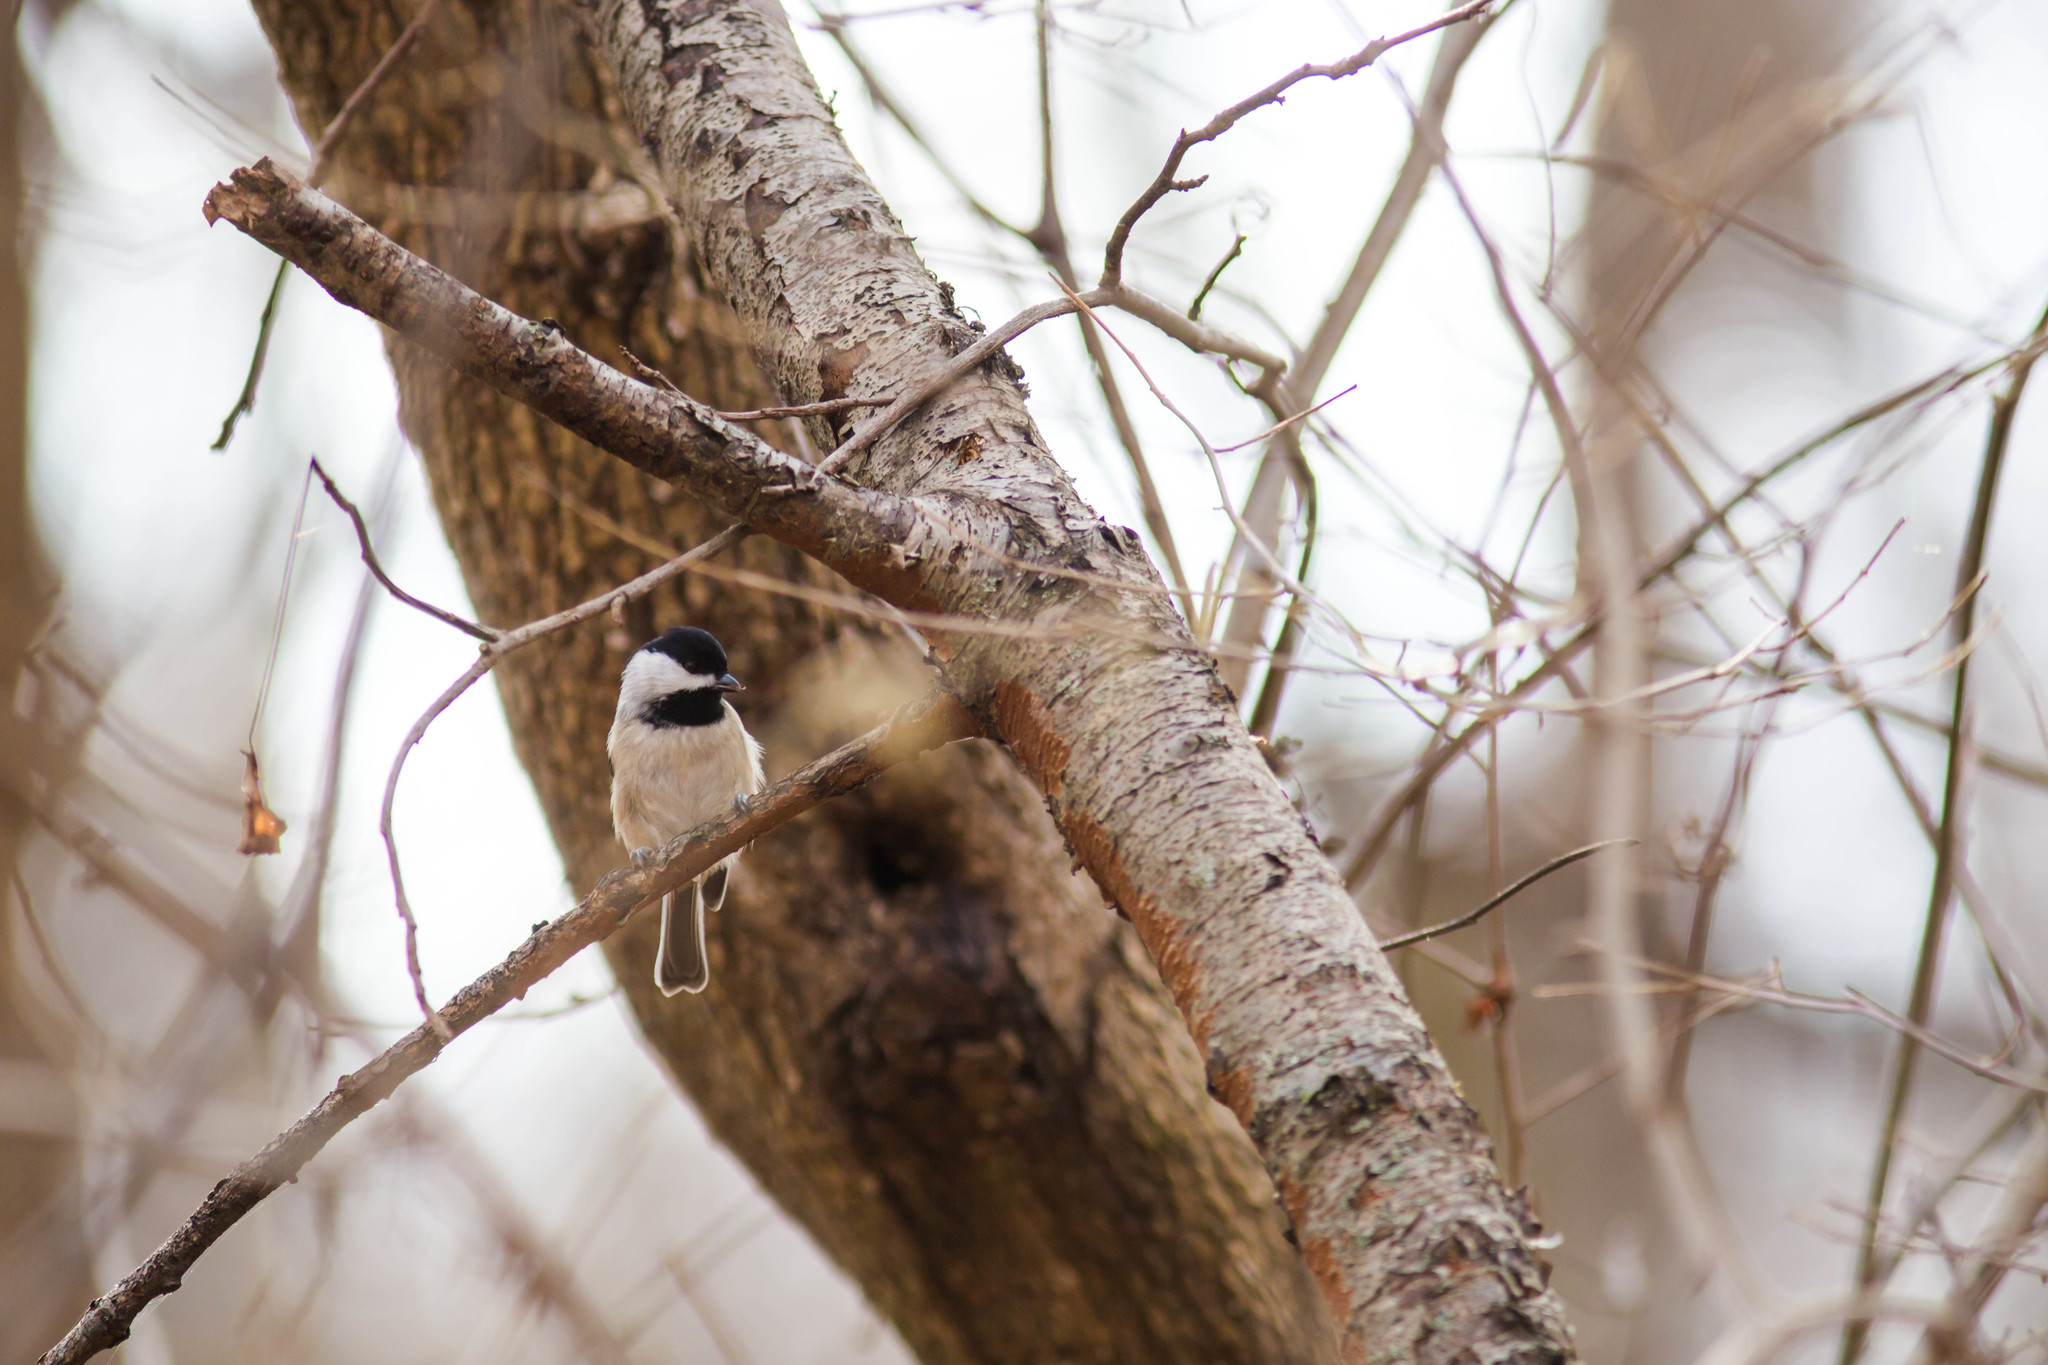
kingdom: Animalia
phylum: Chordata
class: Aves
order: Passeriformes
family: Paridae
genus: Poecile
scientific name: Poecile carolinensis
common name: Carolina chickadee
